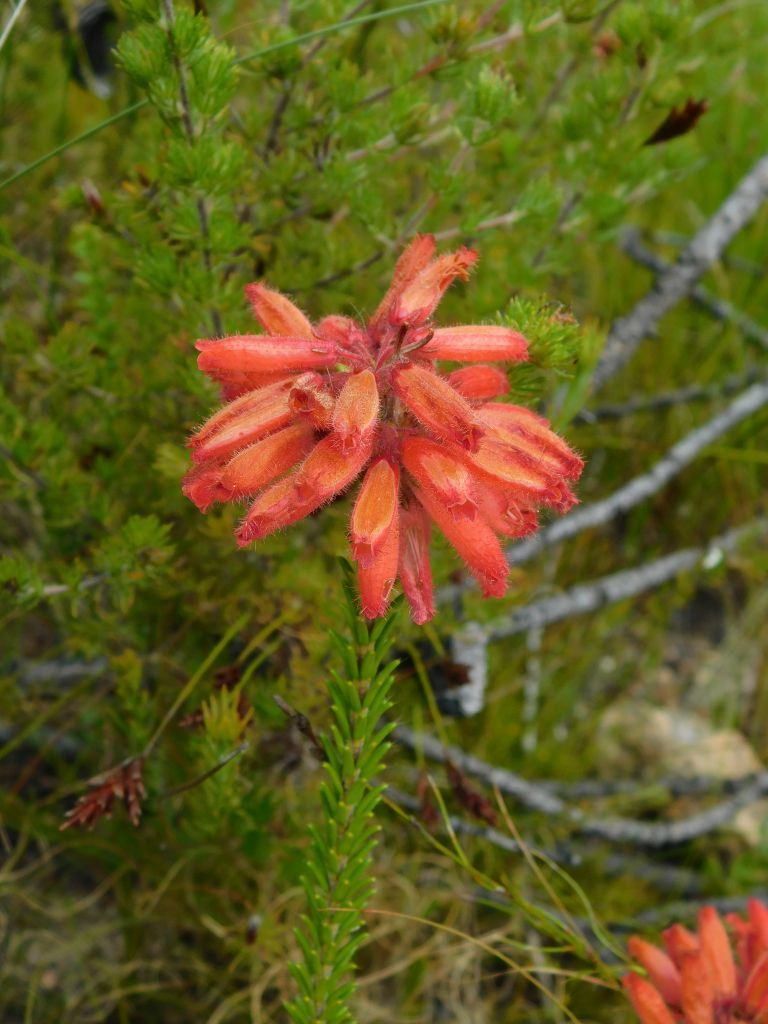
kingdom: Plantae
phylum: Tracheophyta
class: Magnoliopsida
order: Ericales
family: Ericaceae
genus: Erica
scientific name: Erica cerinthoides
